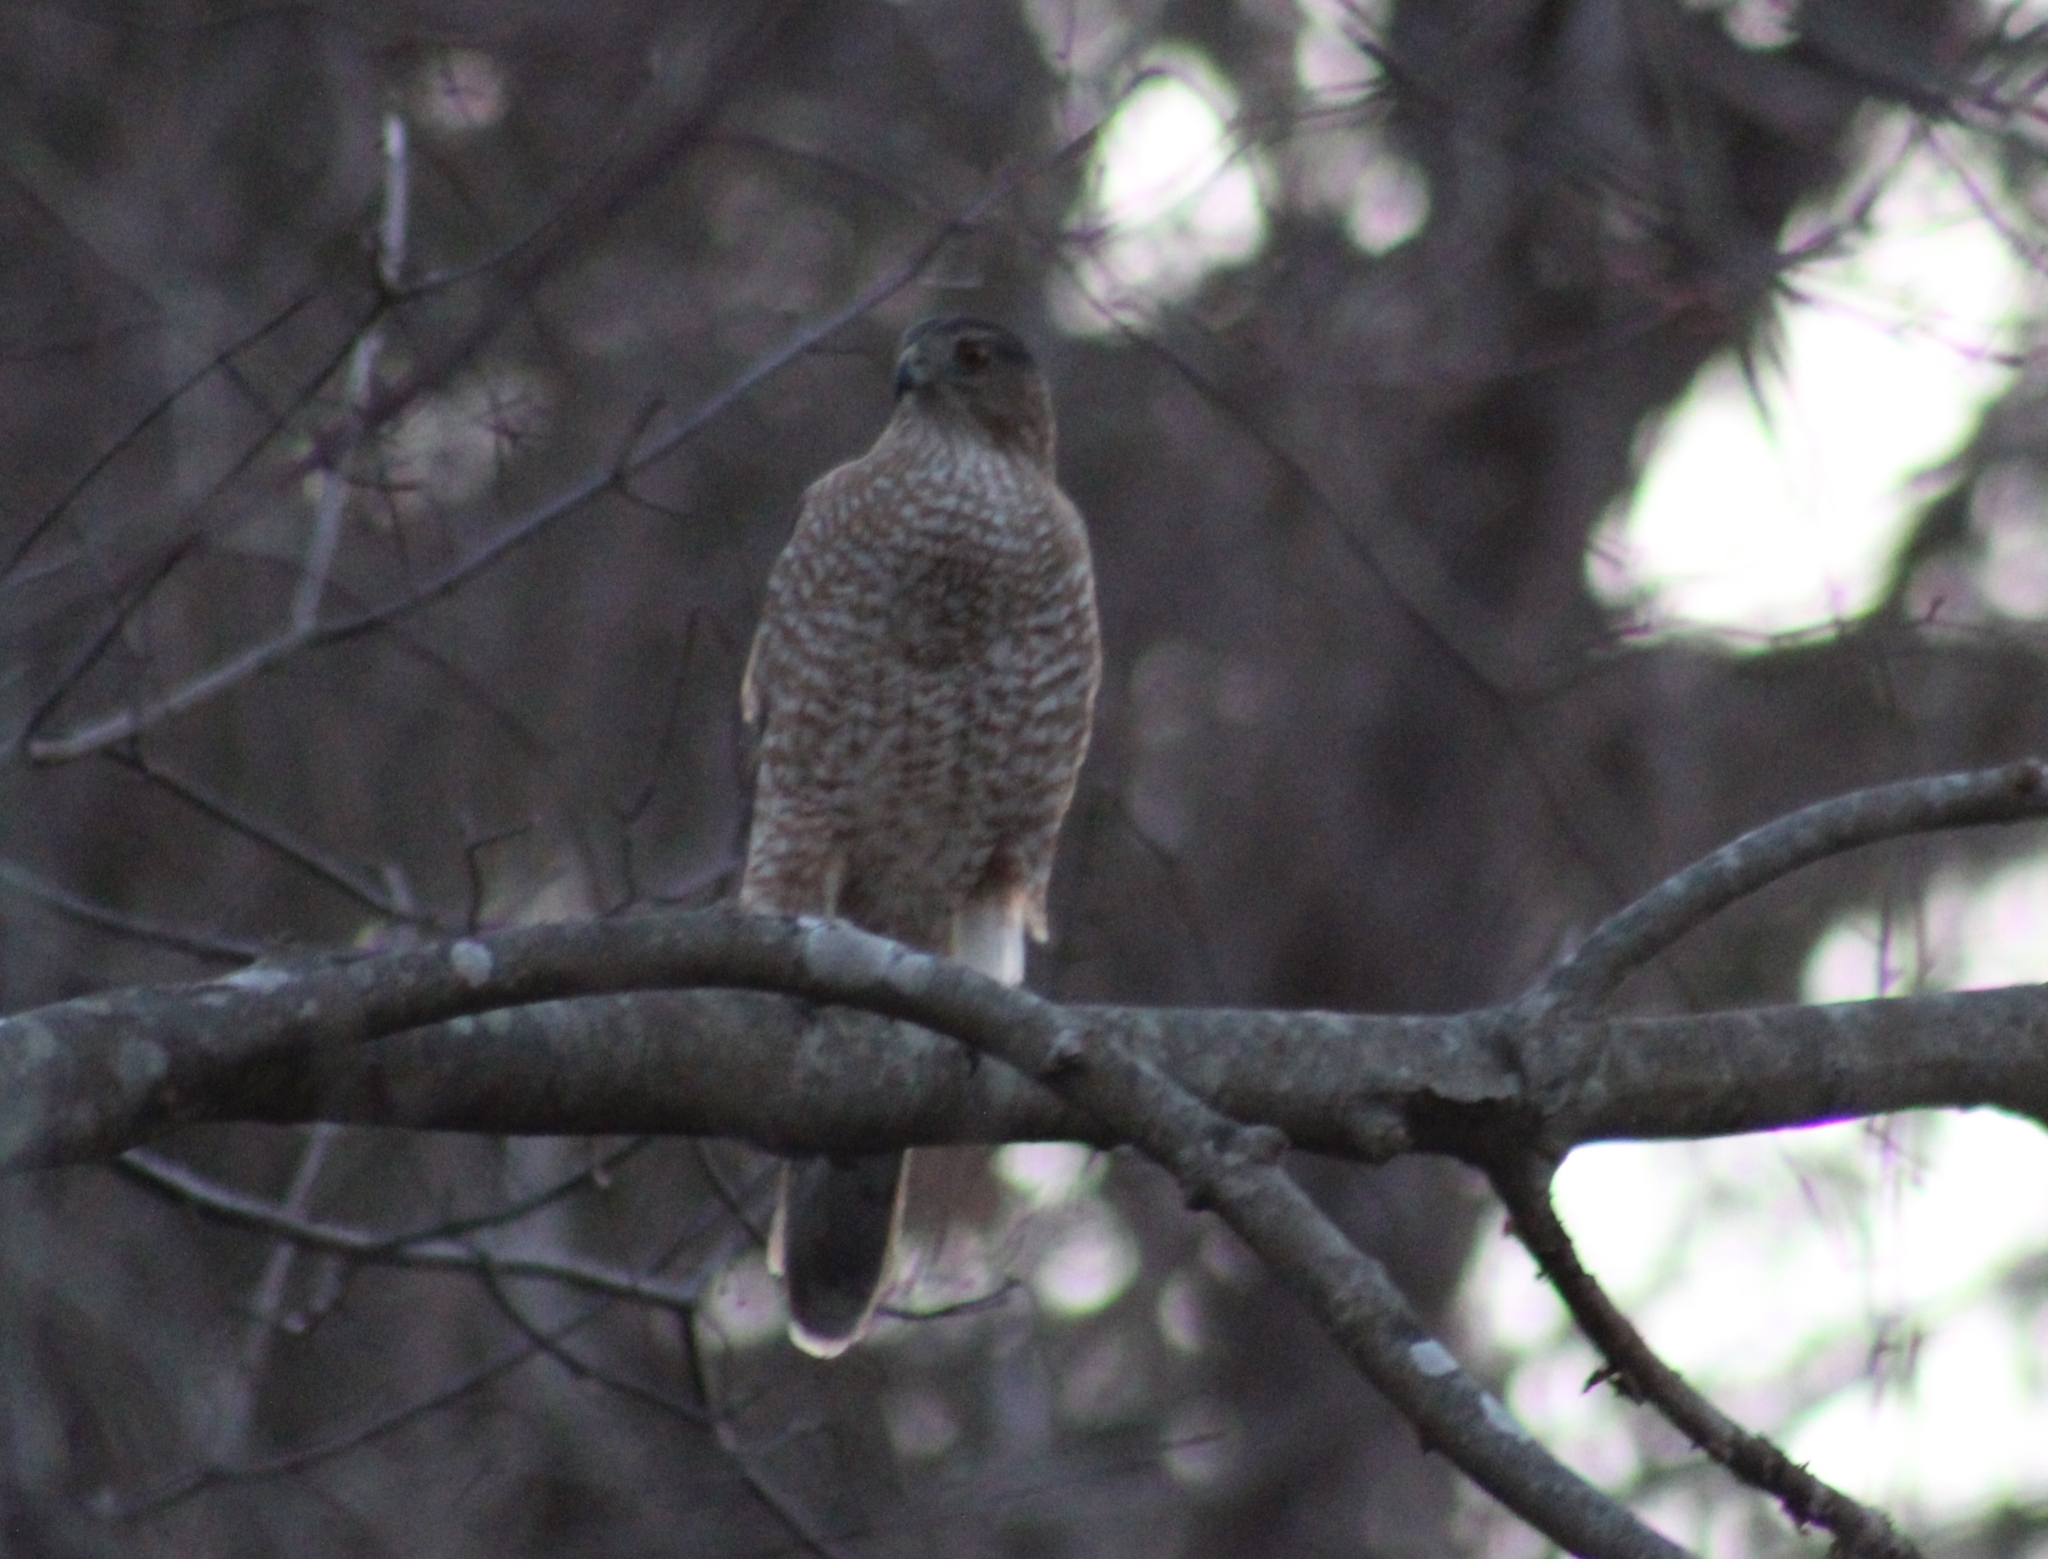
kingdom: Animalia
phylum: Chordata
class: Aves
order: Accipitriformes
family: Accipitridae
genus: Accipiter
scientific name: Accipiter cooperii
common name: Cooper's hawk
